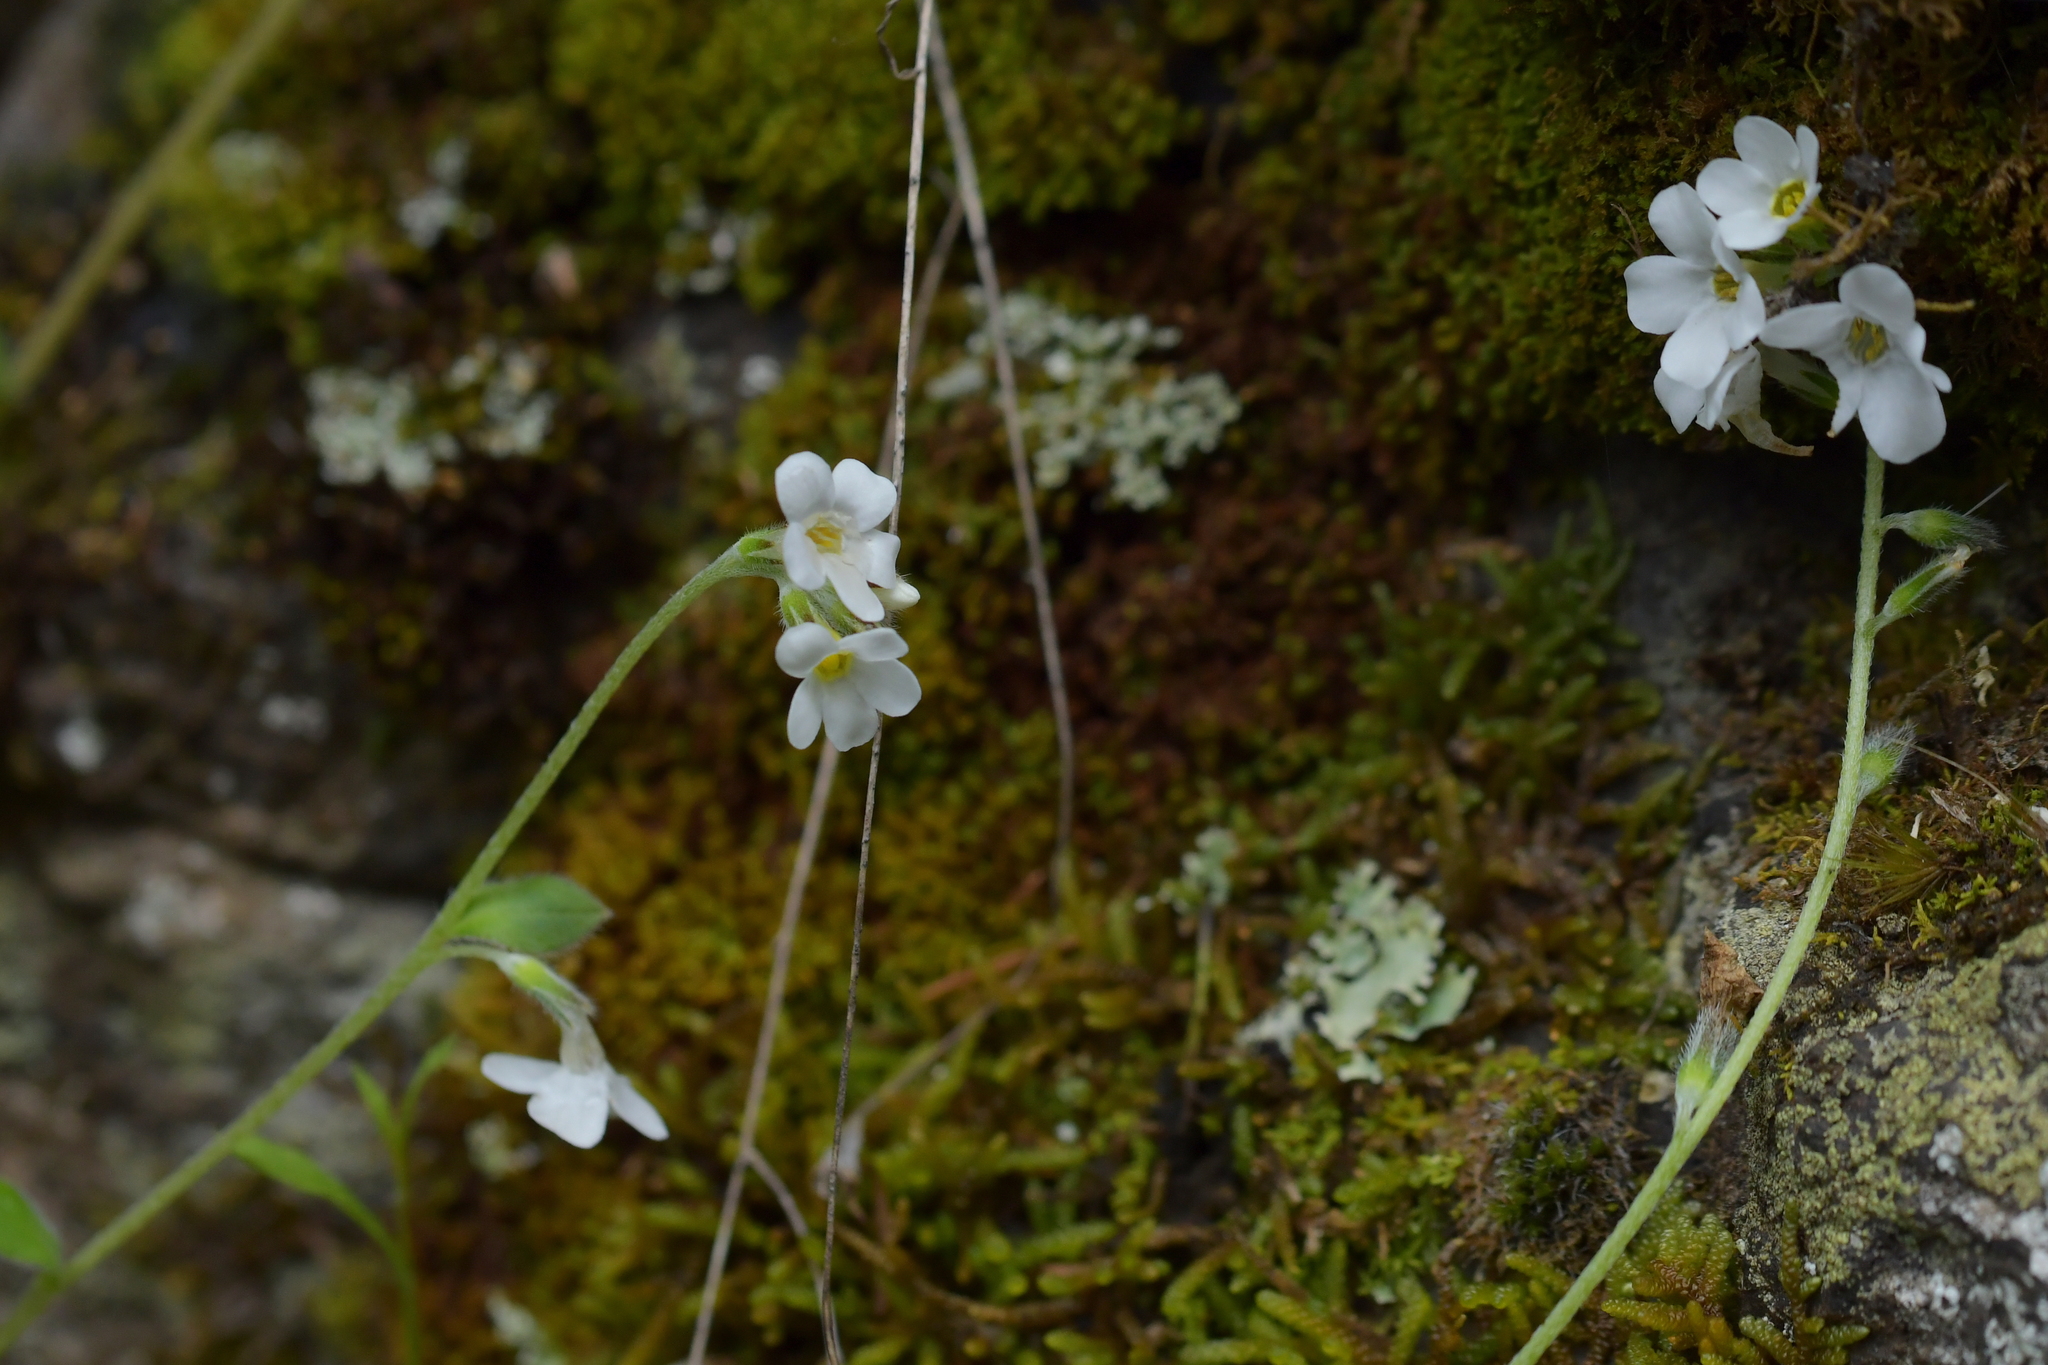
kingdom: Plantae
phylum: Tracheophyta
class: Magnoliopsida
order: Boraginales
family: Boraginaceae
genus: Myosotis
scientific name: Myosotis australis
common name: Australian forget-me-not
